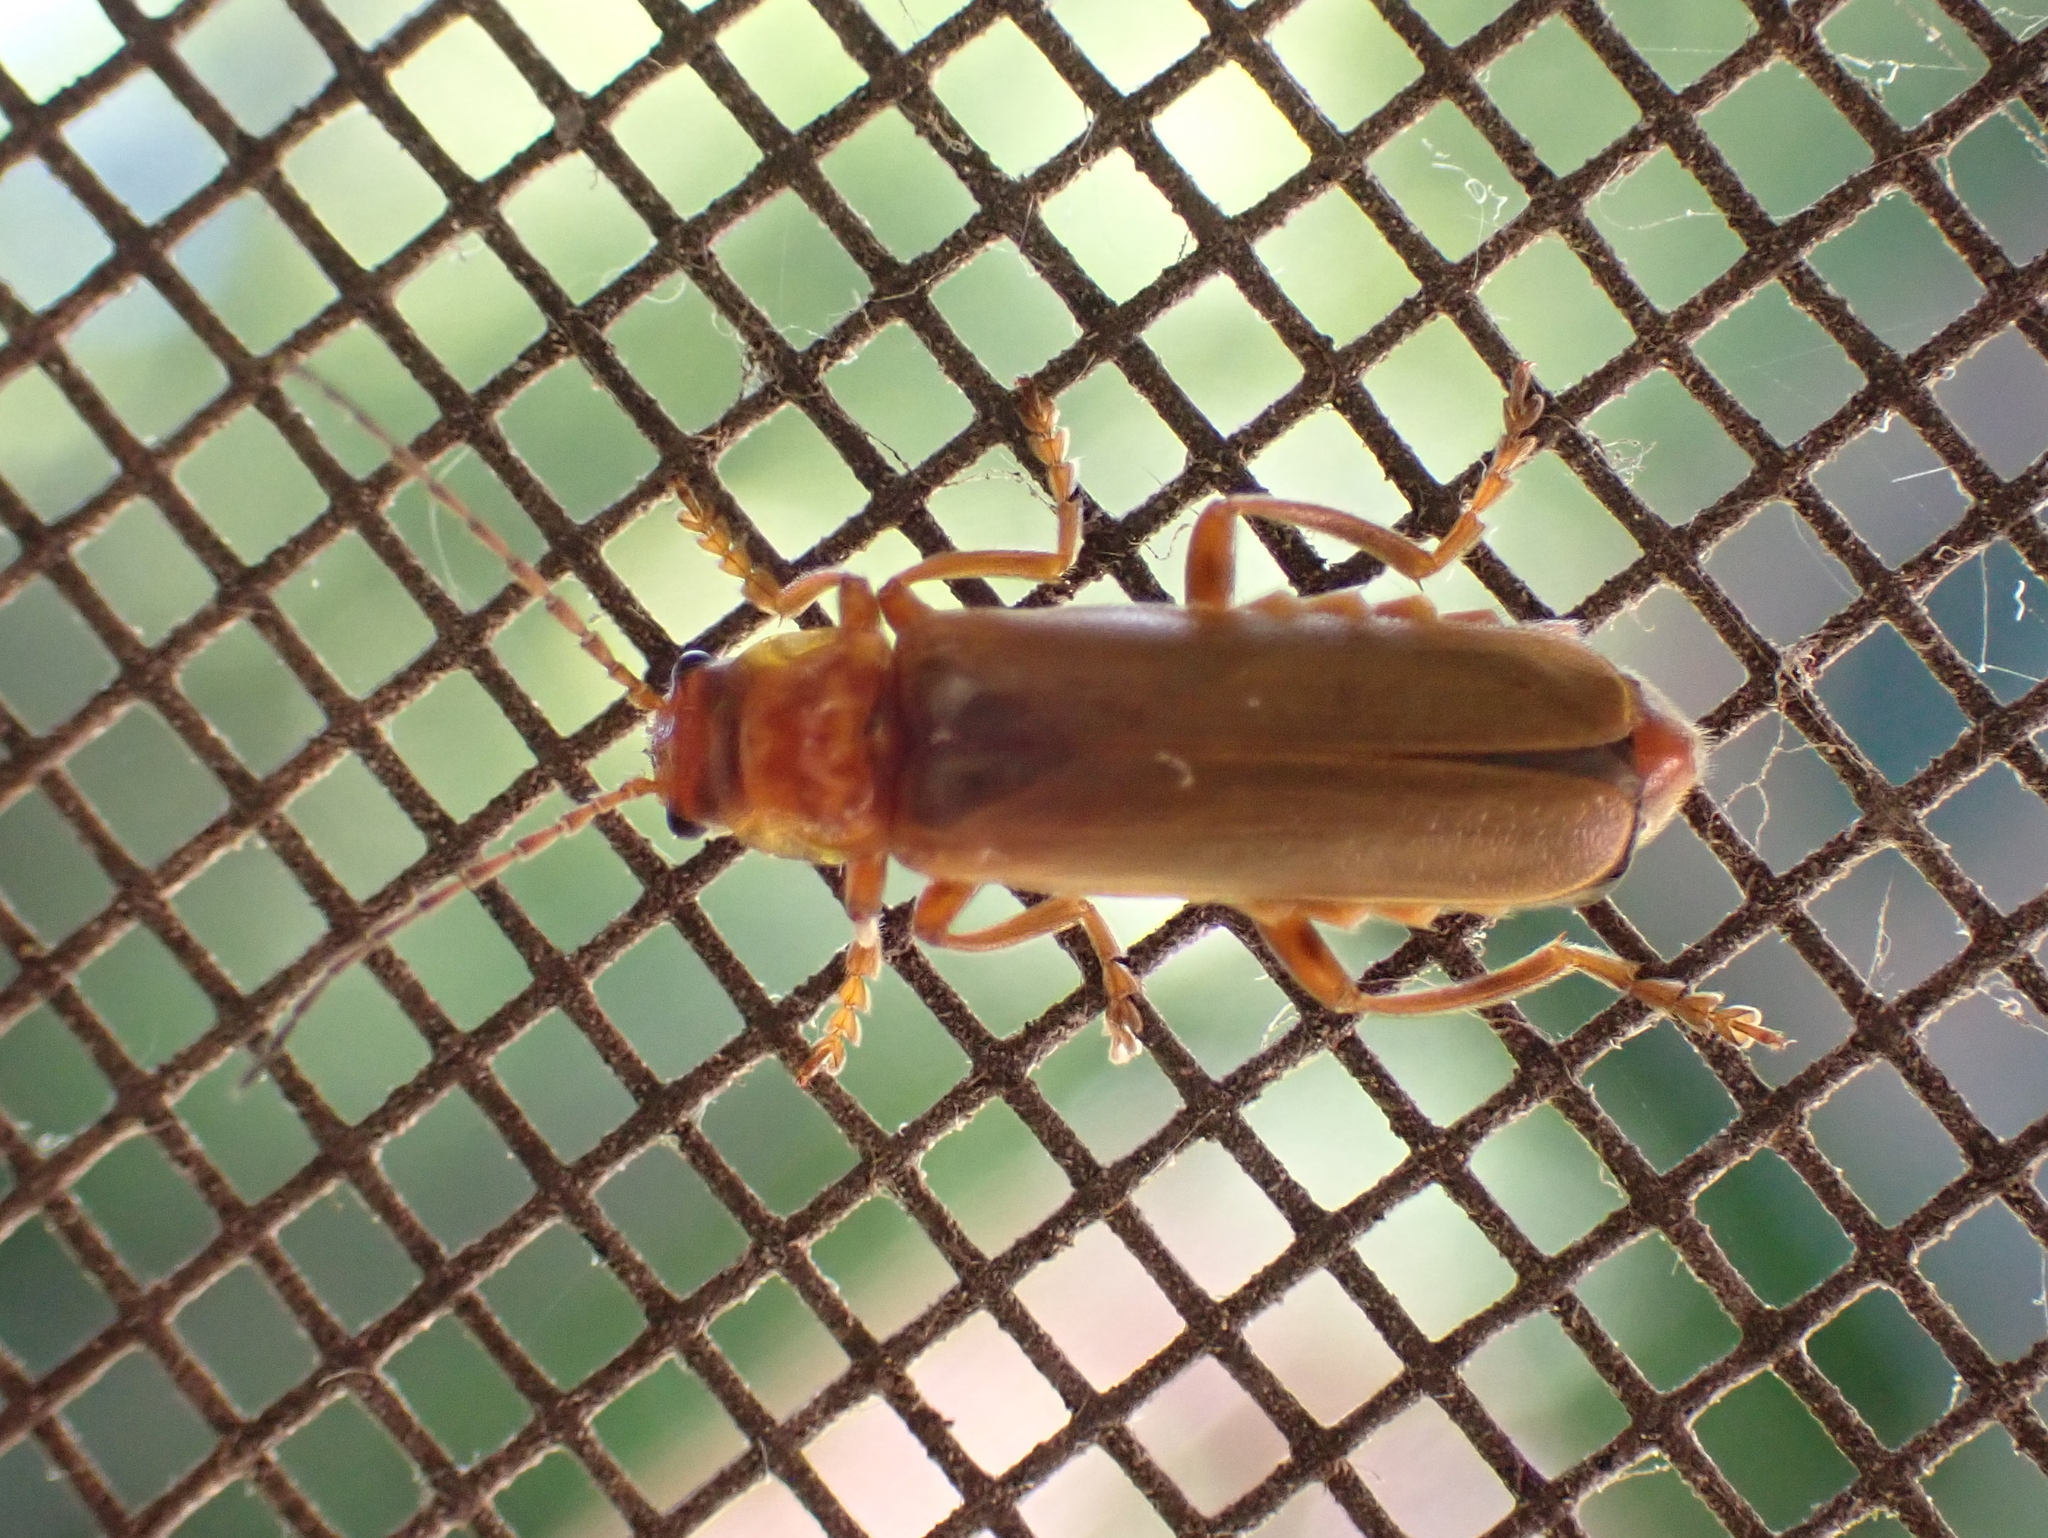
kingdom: Animalia
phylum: Arthropoda
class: Insecta
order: Coleoptera
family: Cantharidae
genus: Cantharis
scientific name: Cantharis rufa
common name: Red-spotted soldier beetle
